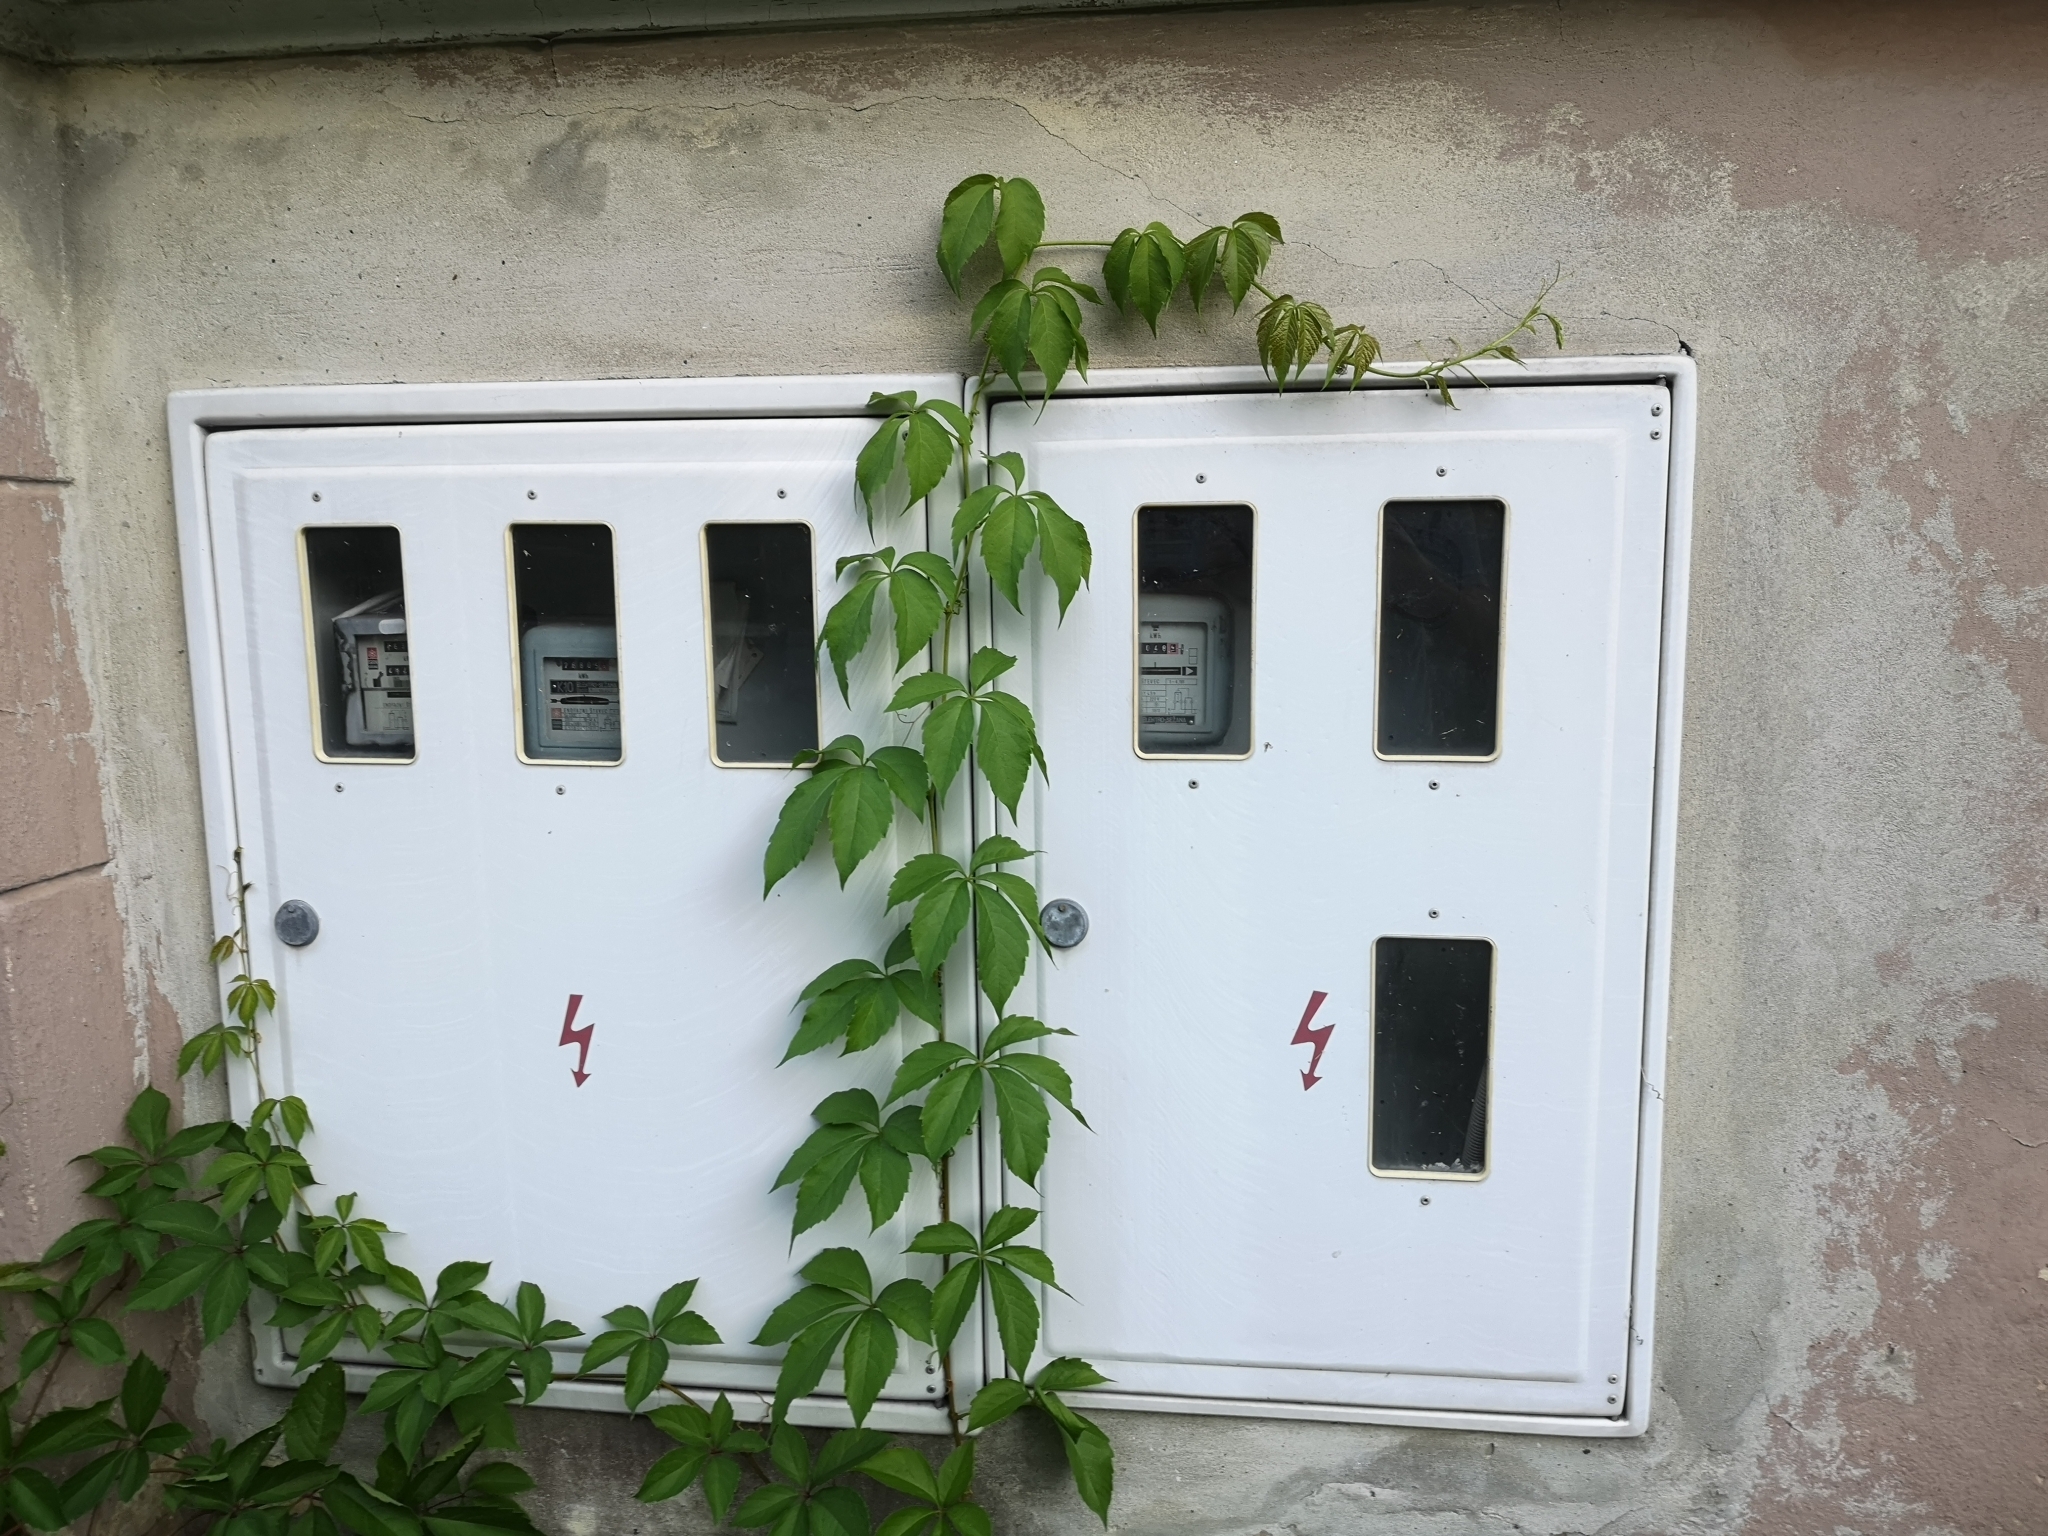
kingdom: Plantae
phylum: Tracheophyta
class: Magnoliopsida
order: Vitales
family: Vitaceae
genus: Parthenocissus
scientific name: Parthenocissus inserta
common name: False virginia-creeper
